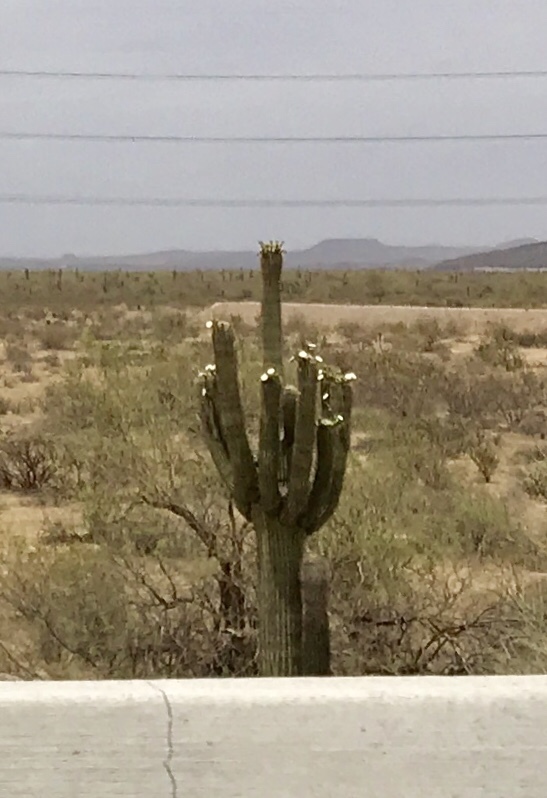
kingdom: Plantae
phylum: Tracheophyta
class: Magnoliopsida
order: Caryophyllales
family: Cactaceae
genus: Carnegiea
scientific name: Carnegiea gigantea
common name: Saguaro
